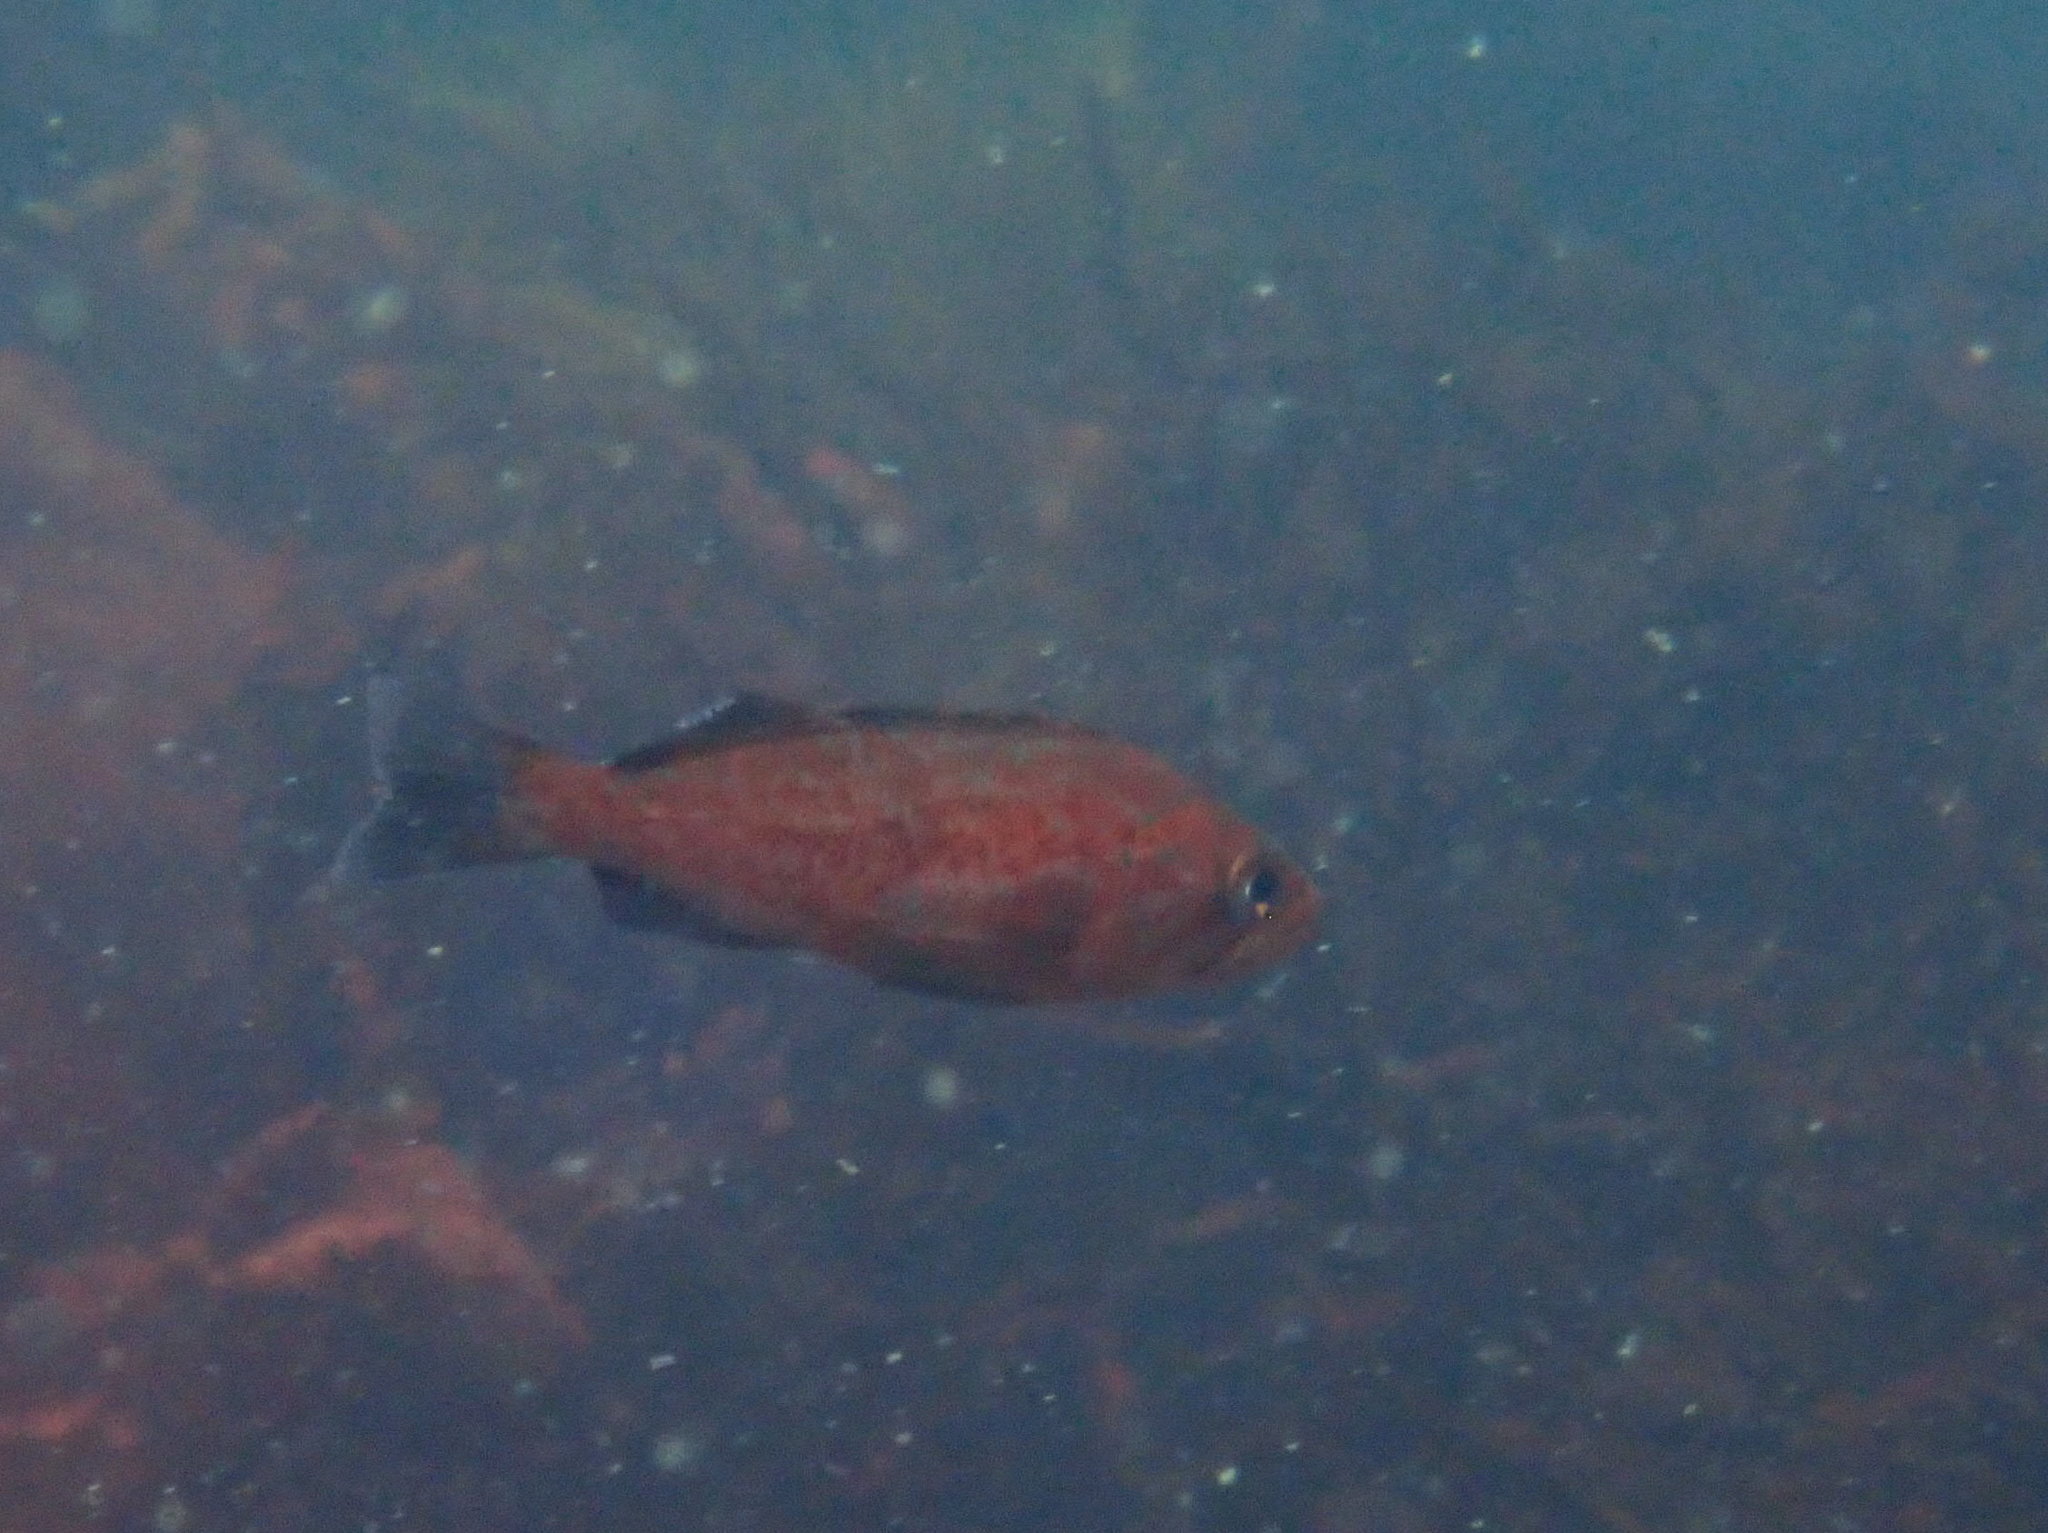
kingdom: Animalia
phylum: Chordata
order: Scorpaeniformes
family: Sebastidae
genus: Sebastes
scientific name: Sebastes mystinus
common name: Blue rockfish
